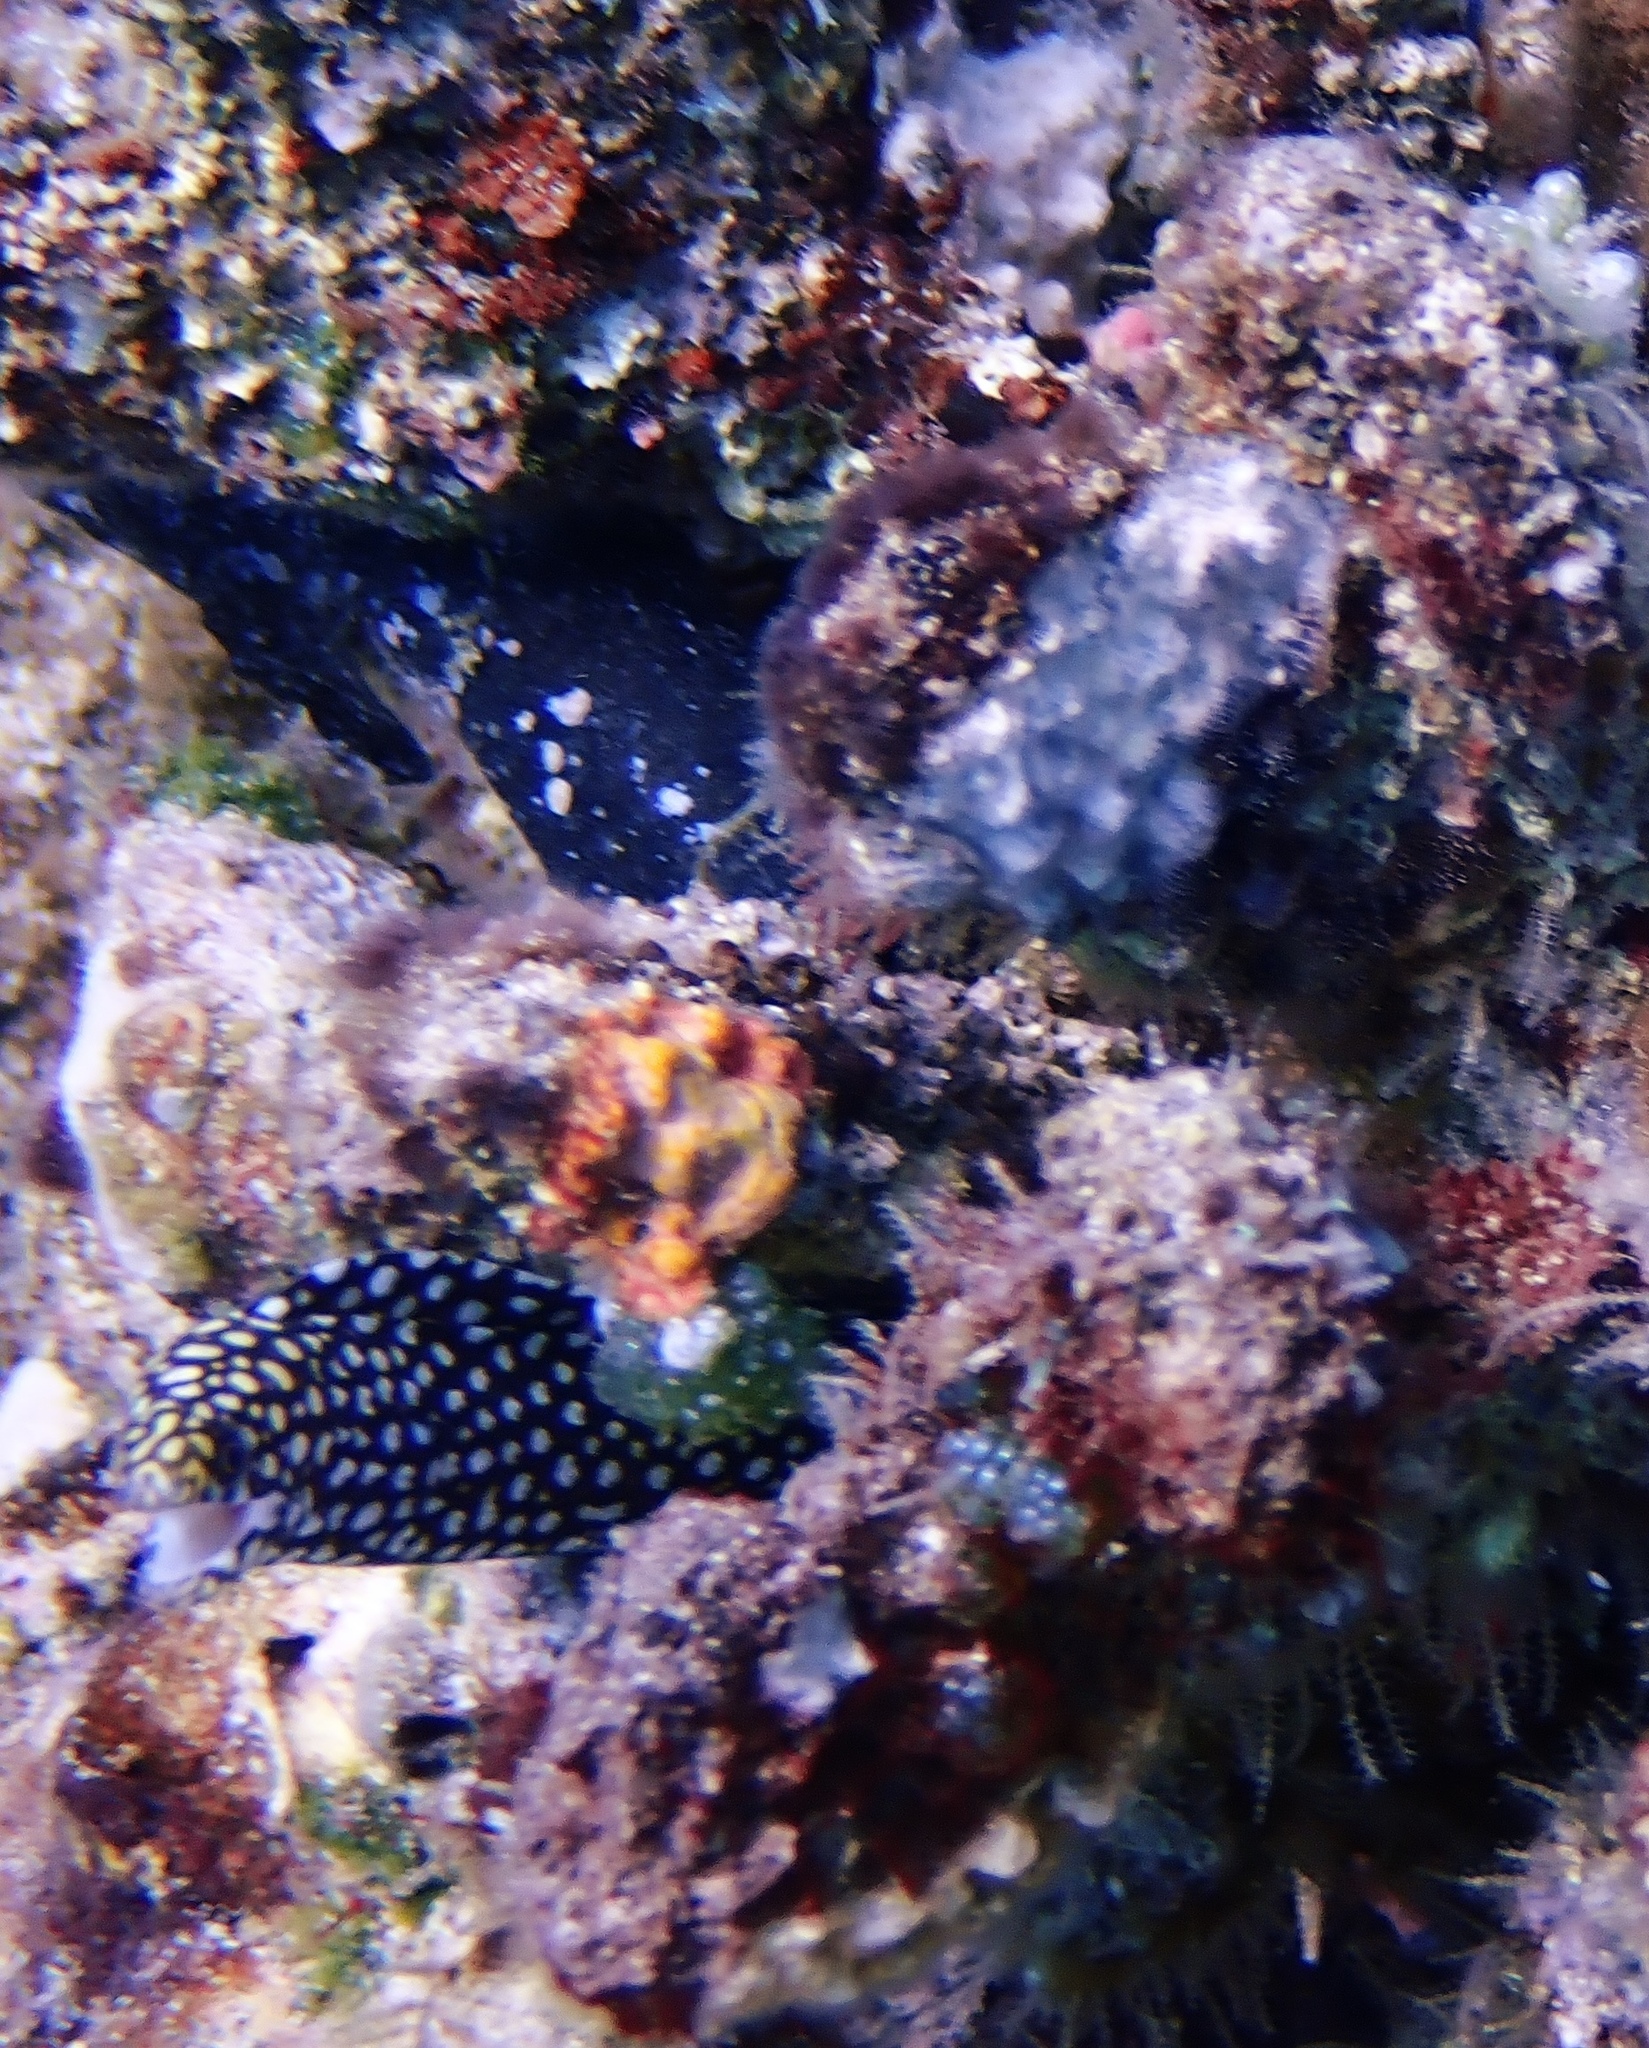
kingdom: Animalia
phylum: Chordata
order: Anguilliformes
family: Muraenidae
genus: Gymnothorax
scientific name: Gymnothorax meleagris
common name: Guineafowl moray
